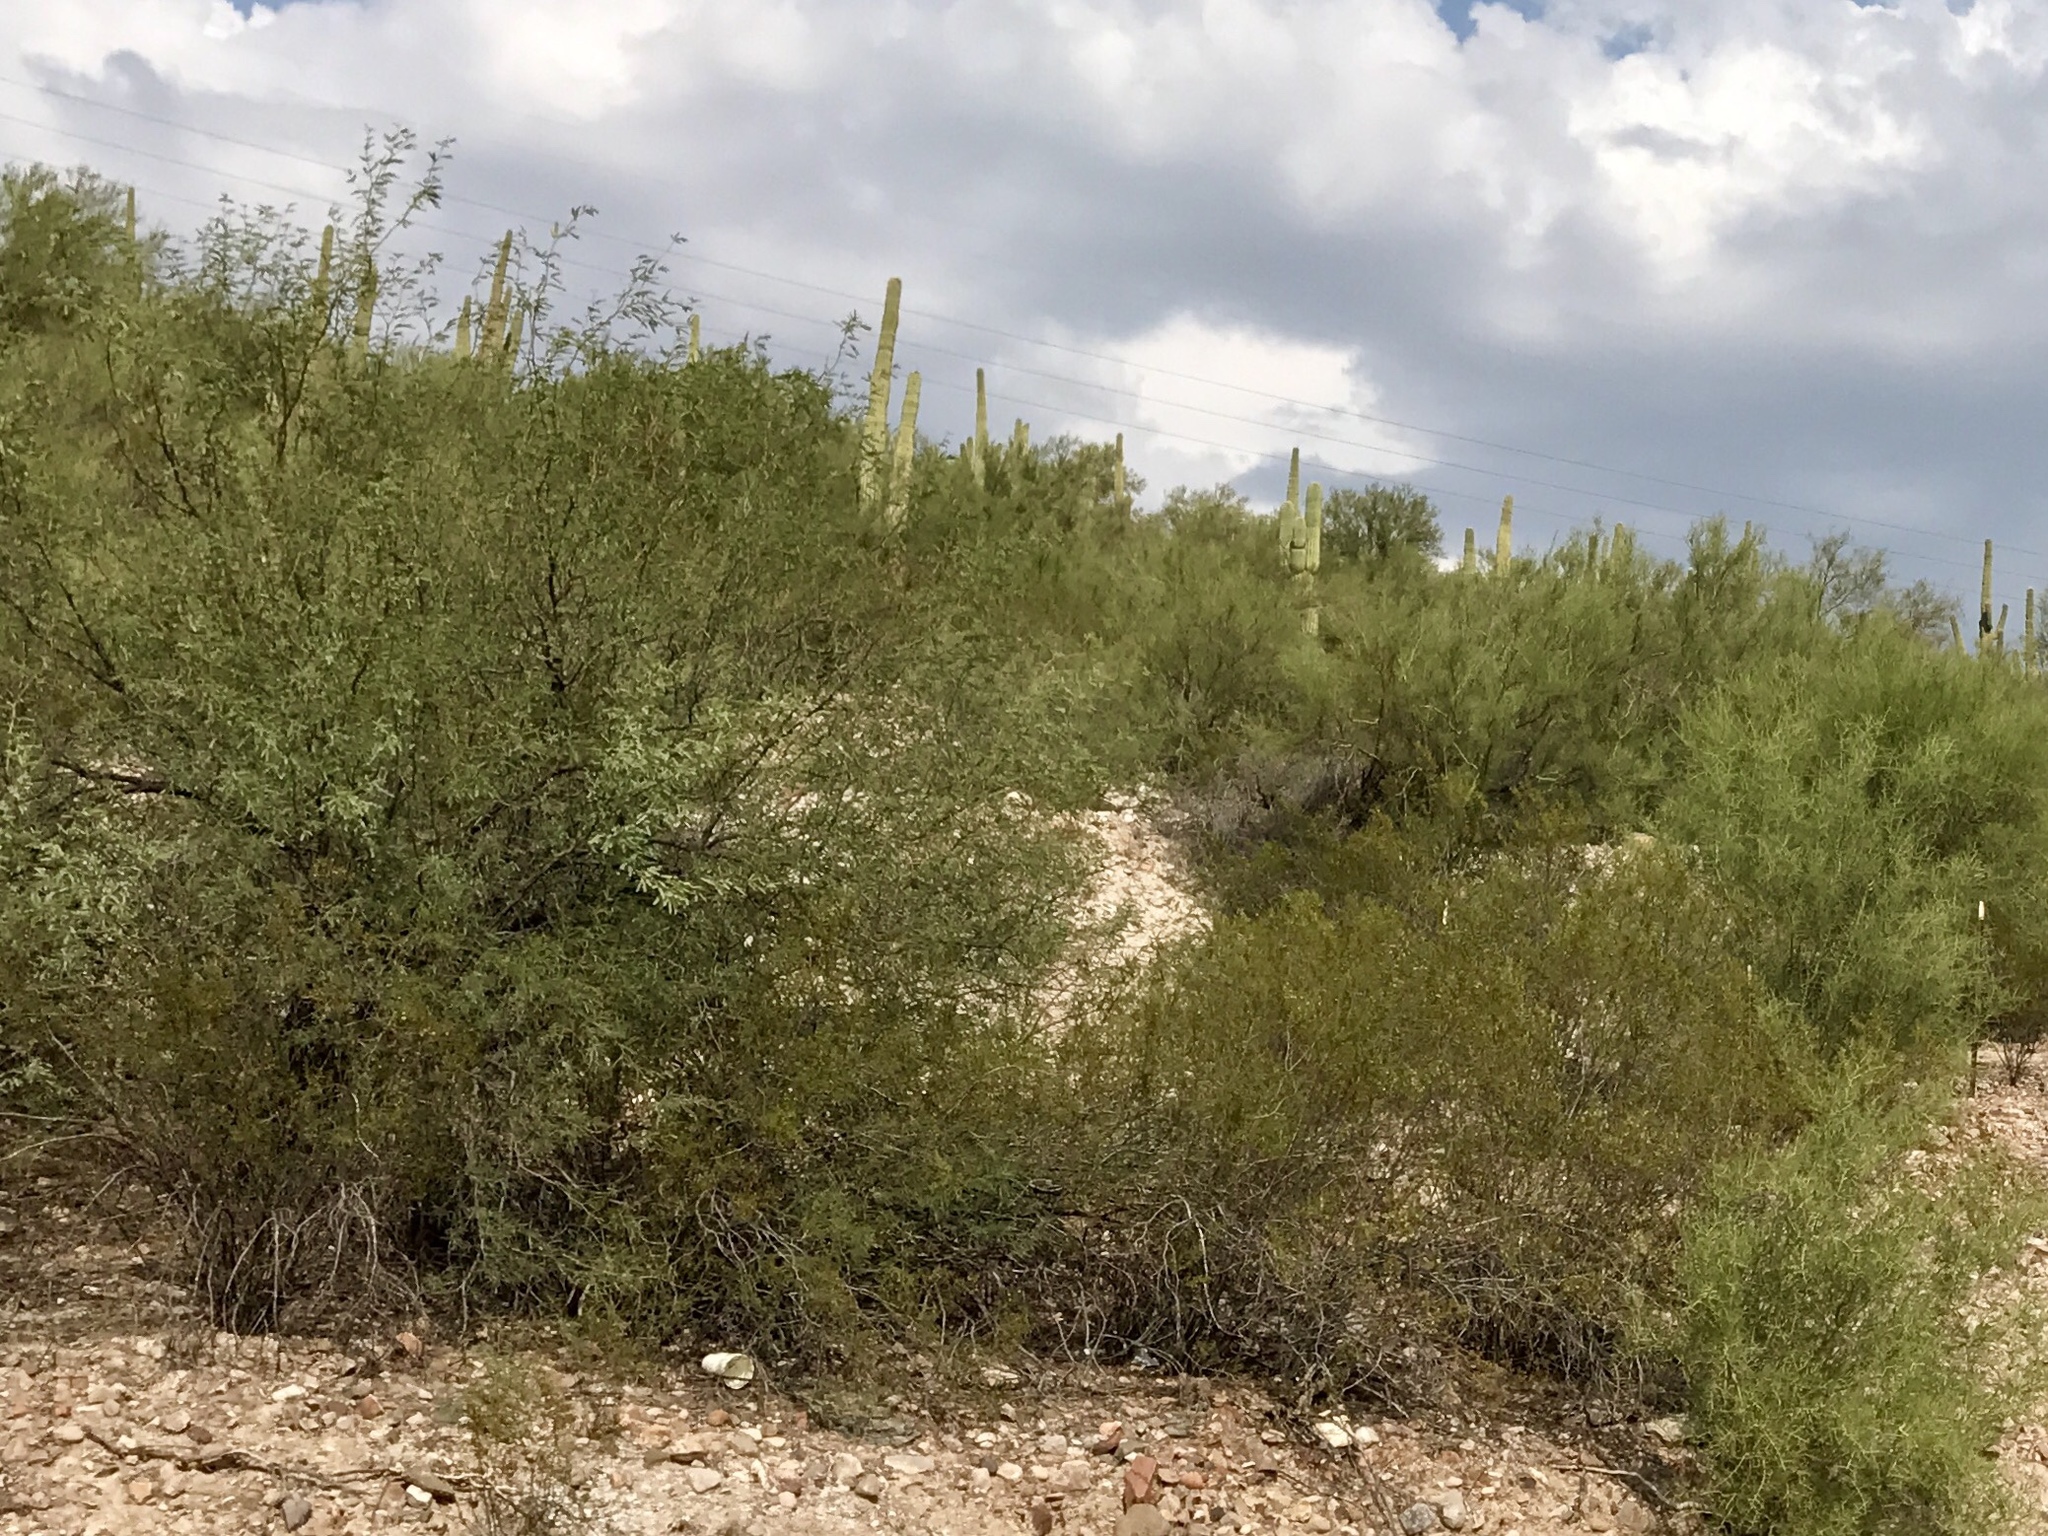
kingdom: Plantae
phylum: Tracheophyta
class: Magnoliopsida
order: Zygophyllales
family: Zygophyllaceae
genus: Larrea
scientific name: Larrea tridentata
